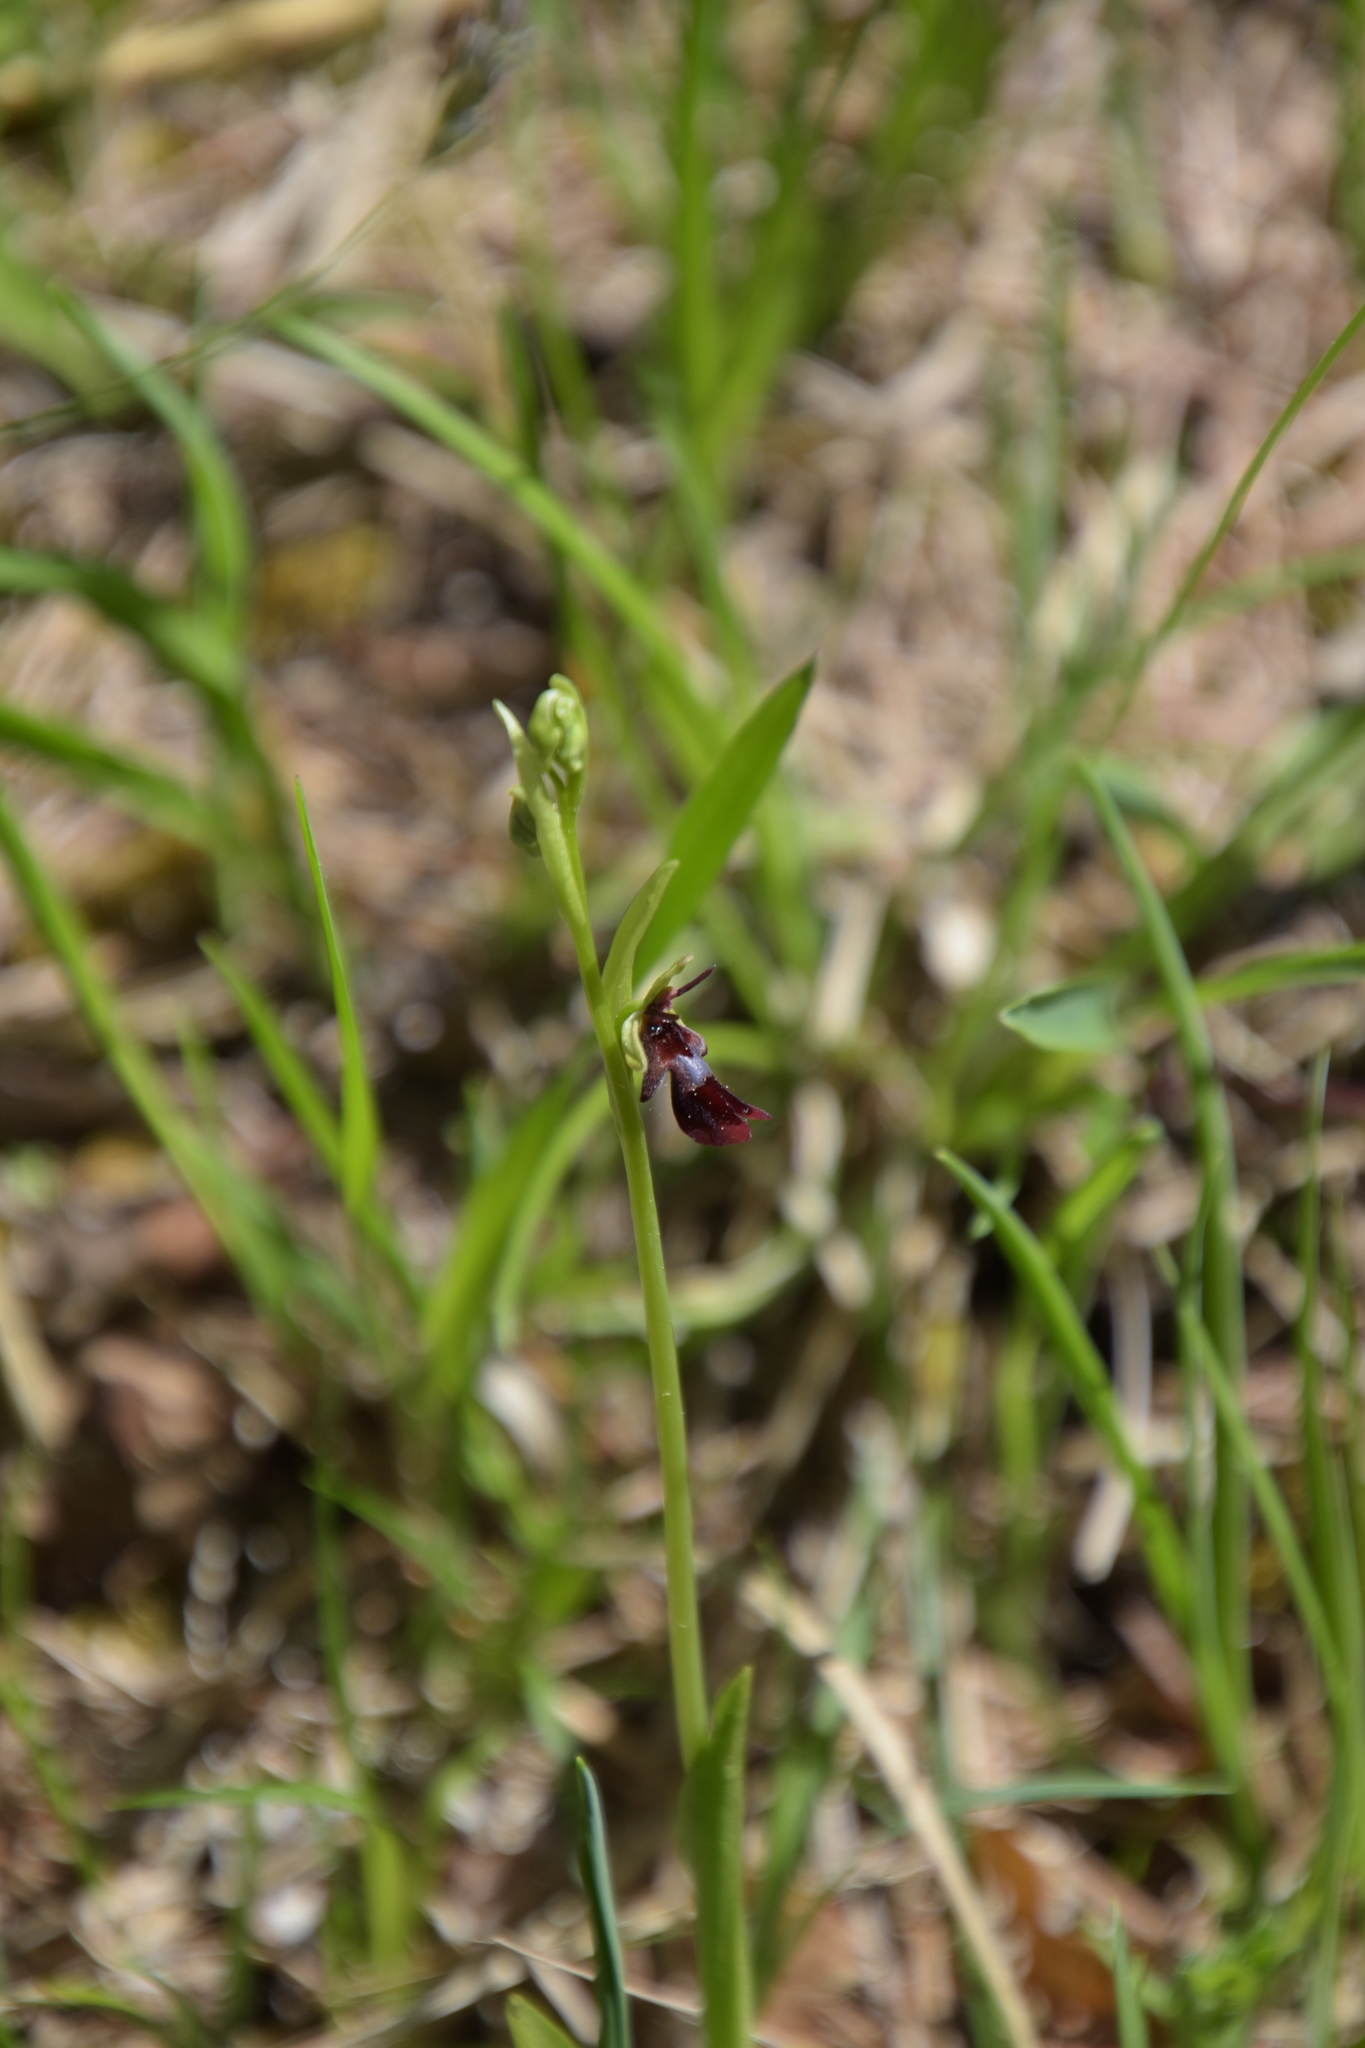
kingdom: Plantae
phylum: Tracheophyta
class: Liliopsida
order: Asparagales
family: Orchidaceae
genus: Ophrys
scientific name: Ophrys insectifera
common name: Fly orchid
